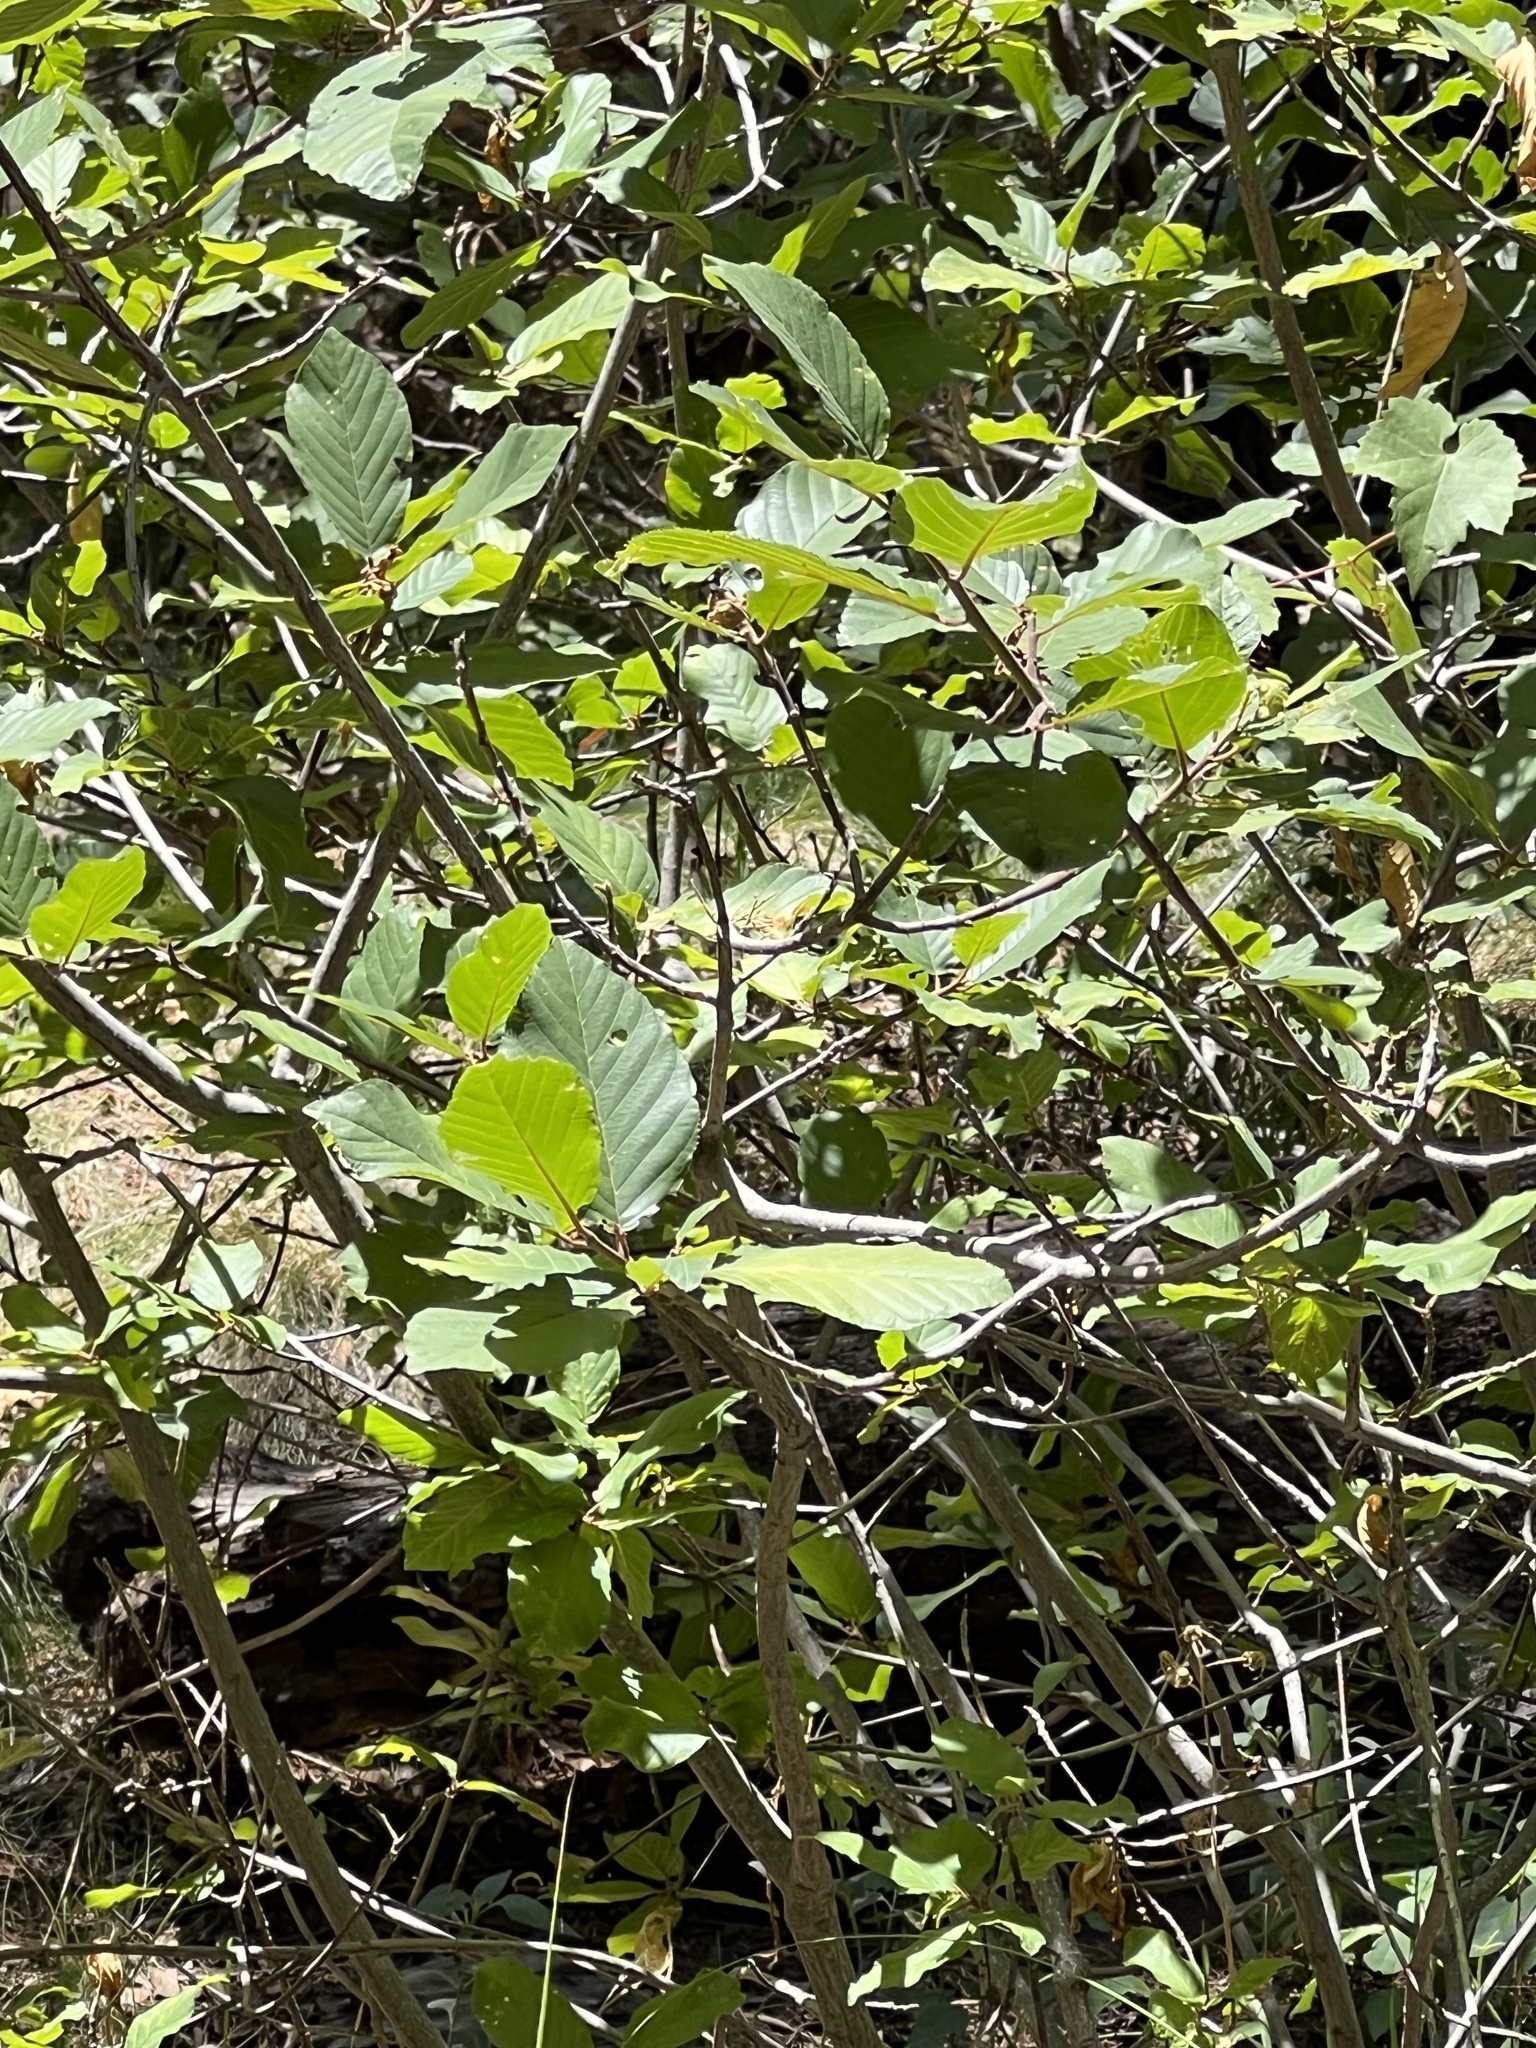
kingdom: Plantae
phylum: Tracheophyta
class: Magnoliopsida
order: Rosales
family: Rhamnaceae
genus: Frangula
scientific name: Frangula betulifolia
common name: Birch-leaf buckthorn
